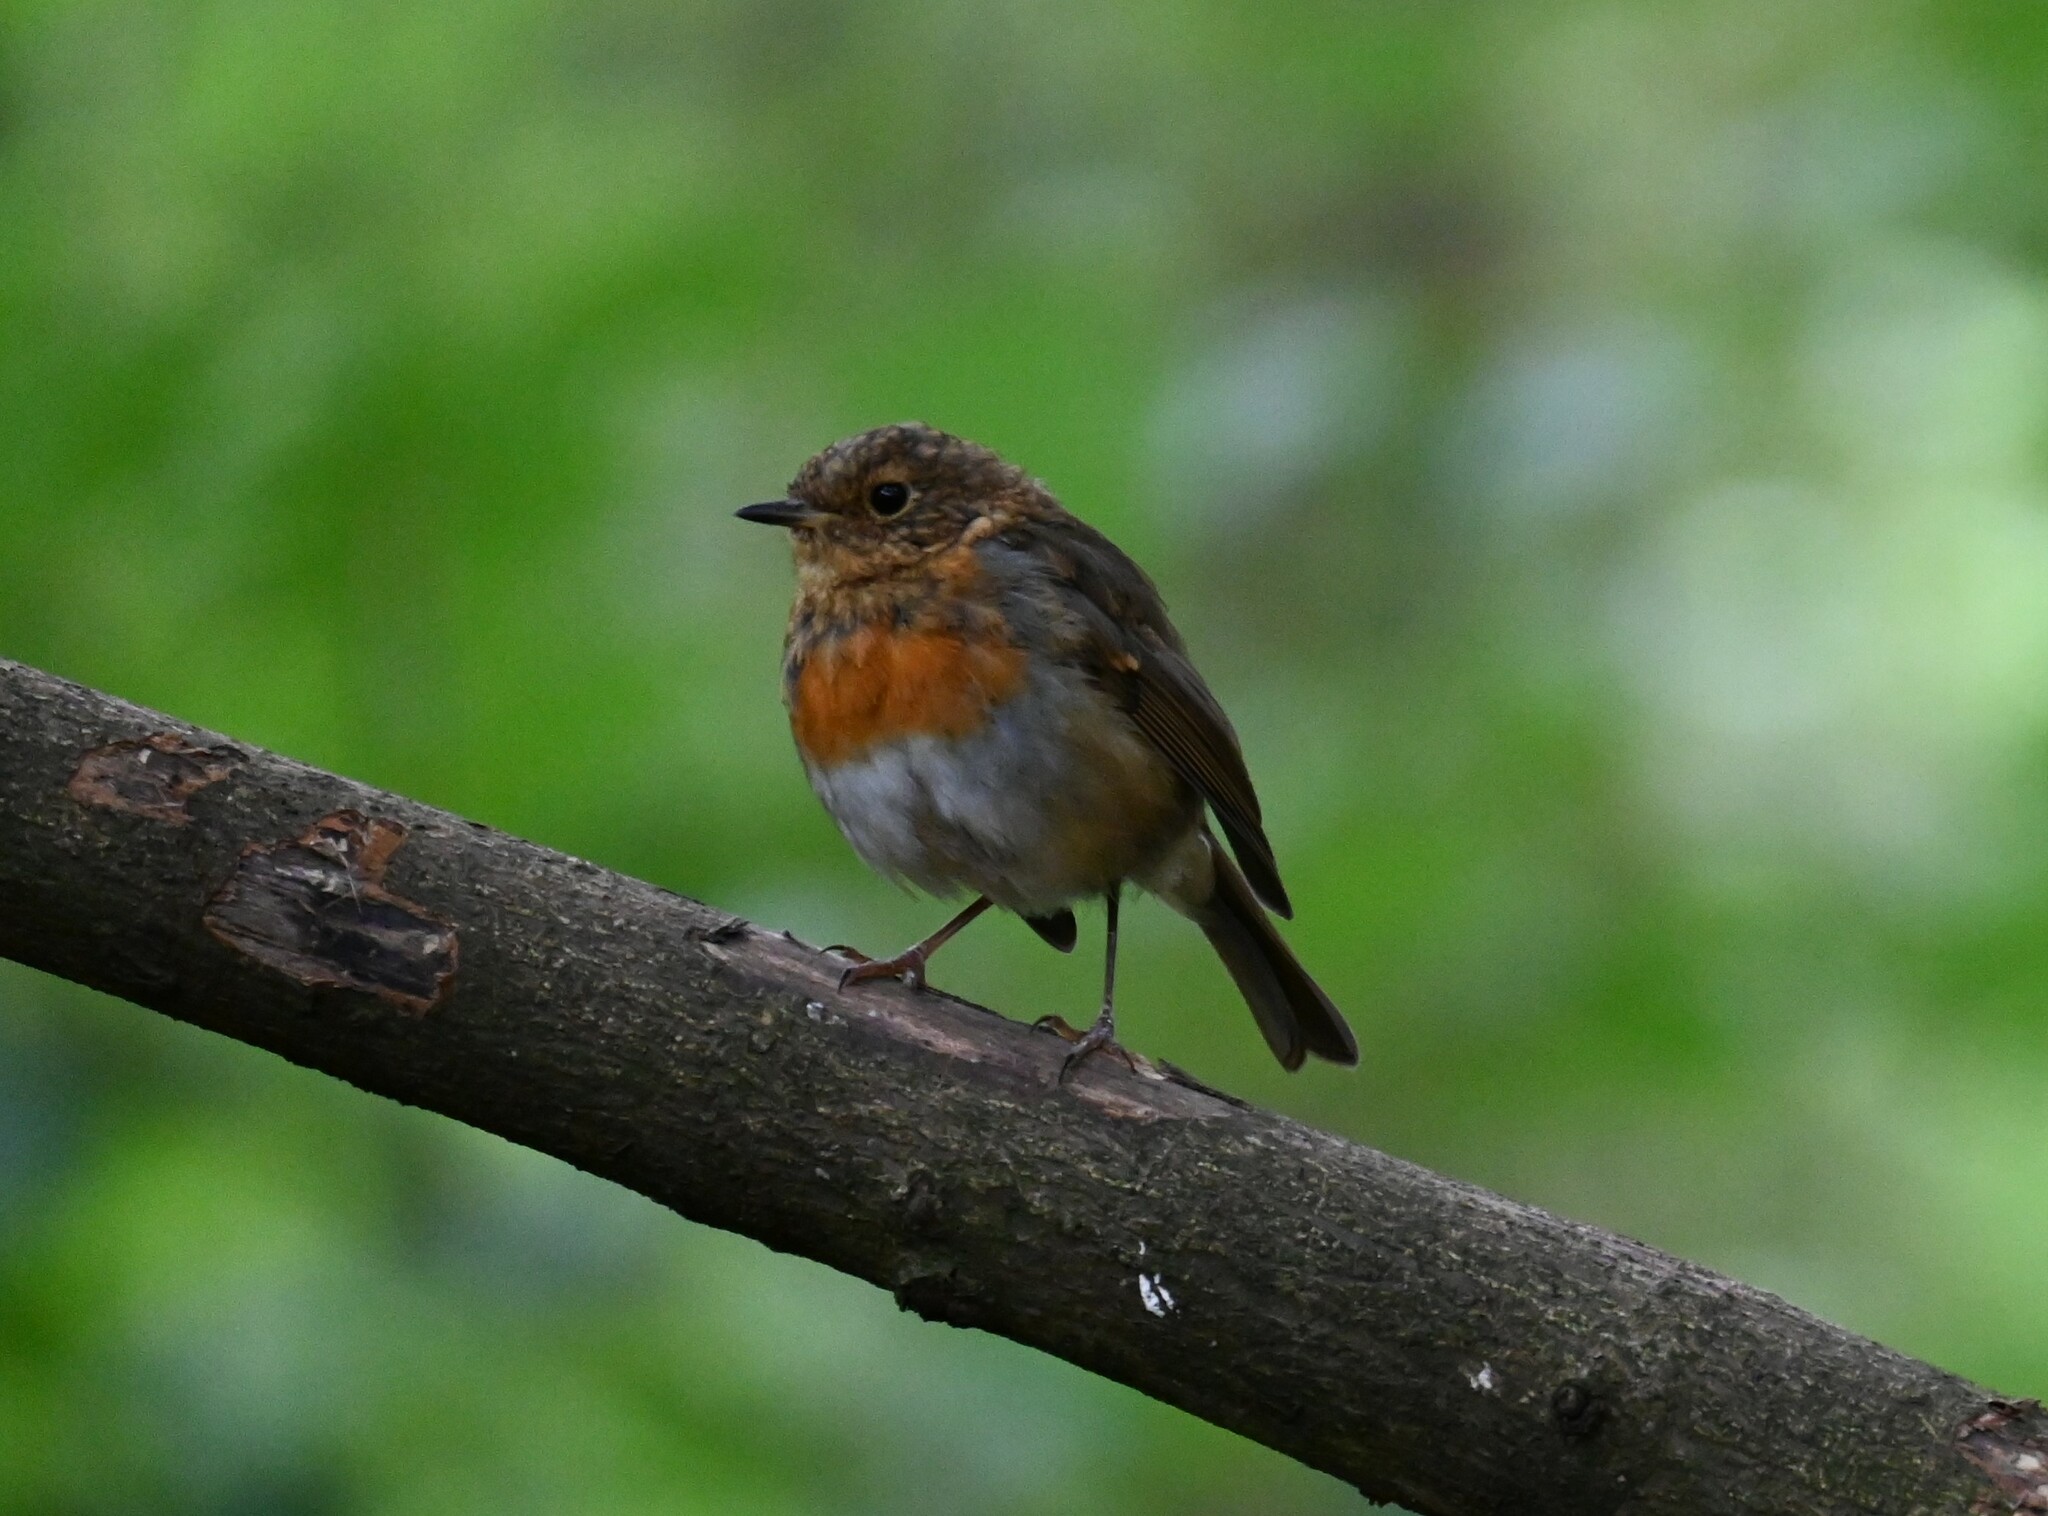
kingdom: Animalia
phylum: Chordata
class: Aves
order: Passeriformes
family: Muscicapidae
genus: Erithacus
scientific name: Erithacus rubecula
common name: European robin
